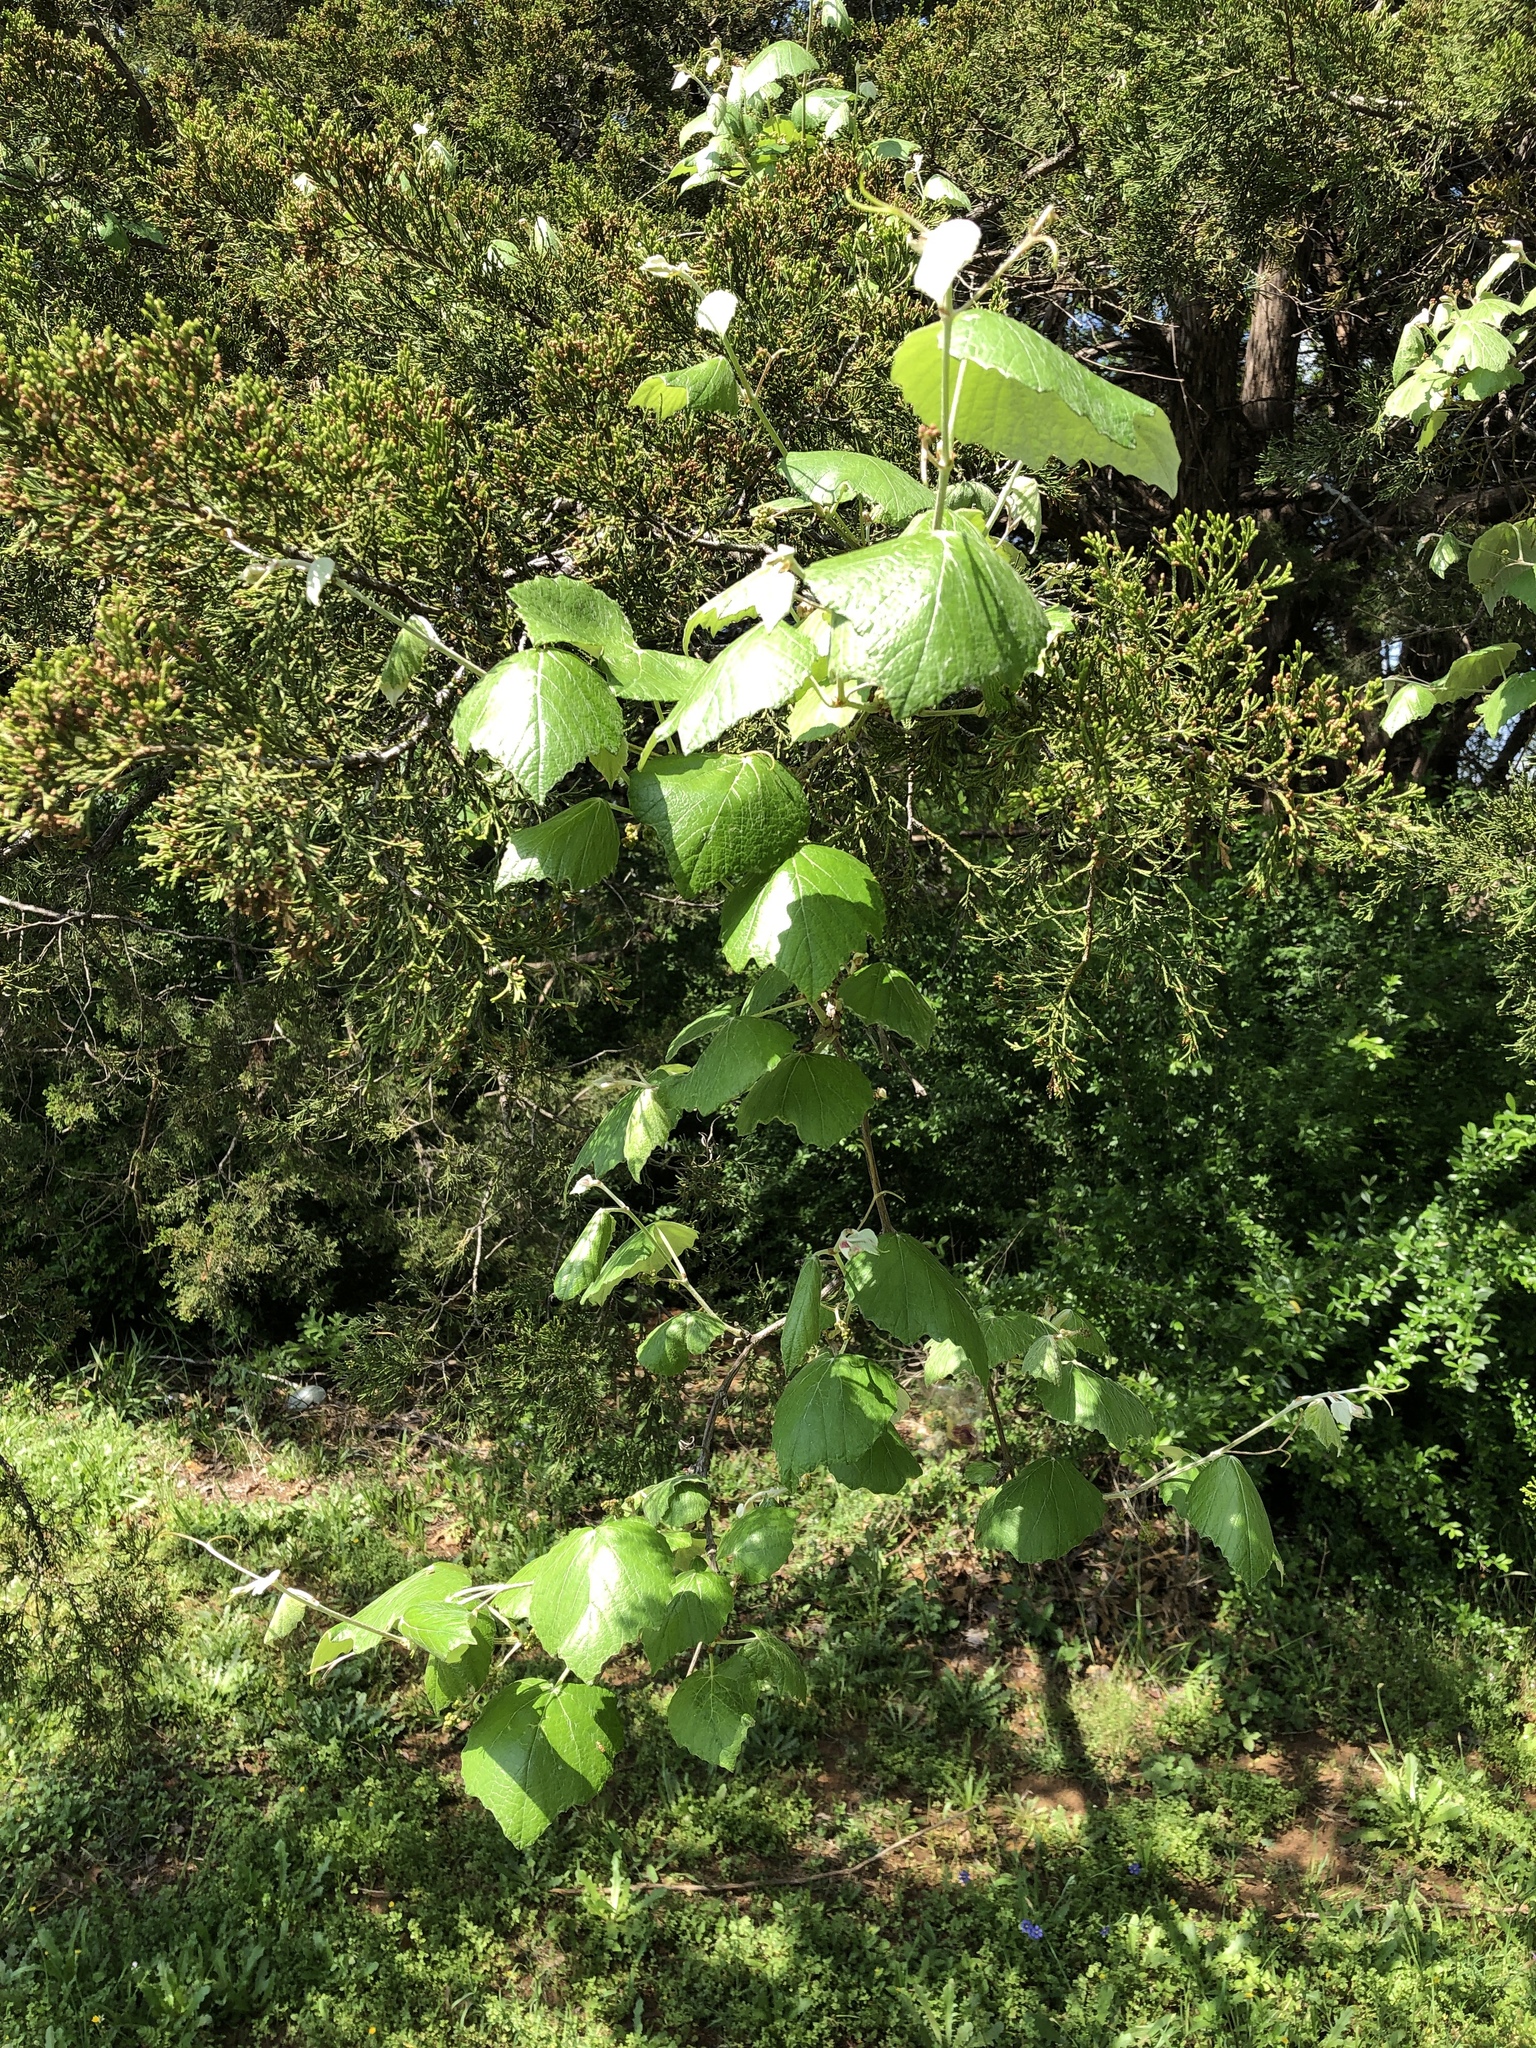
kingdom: Plantae
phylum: Tracheophyta
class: Magnoliopsida
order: Vitales
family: Vitaceae
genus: Vitis
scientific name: Vitis mustangensis
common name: Mustang grape
